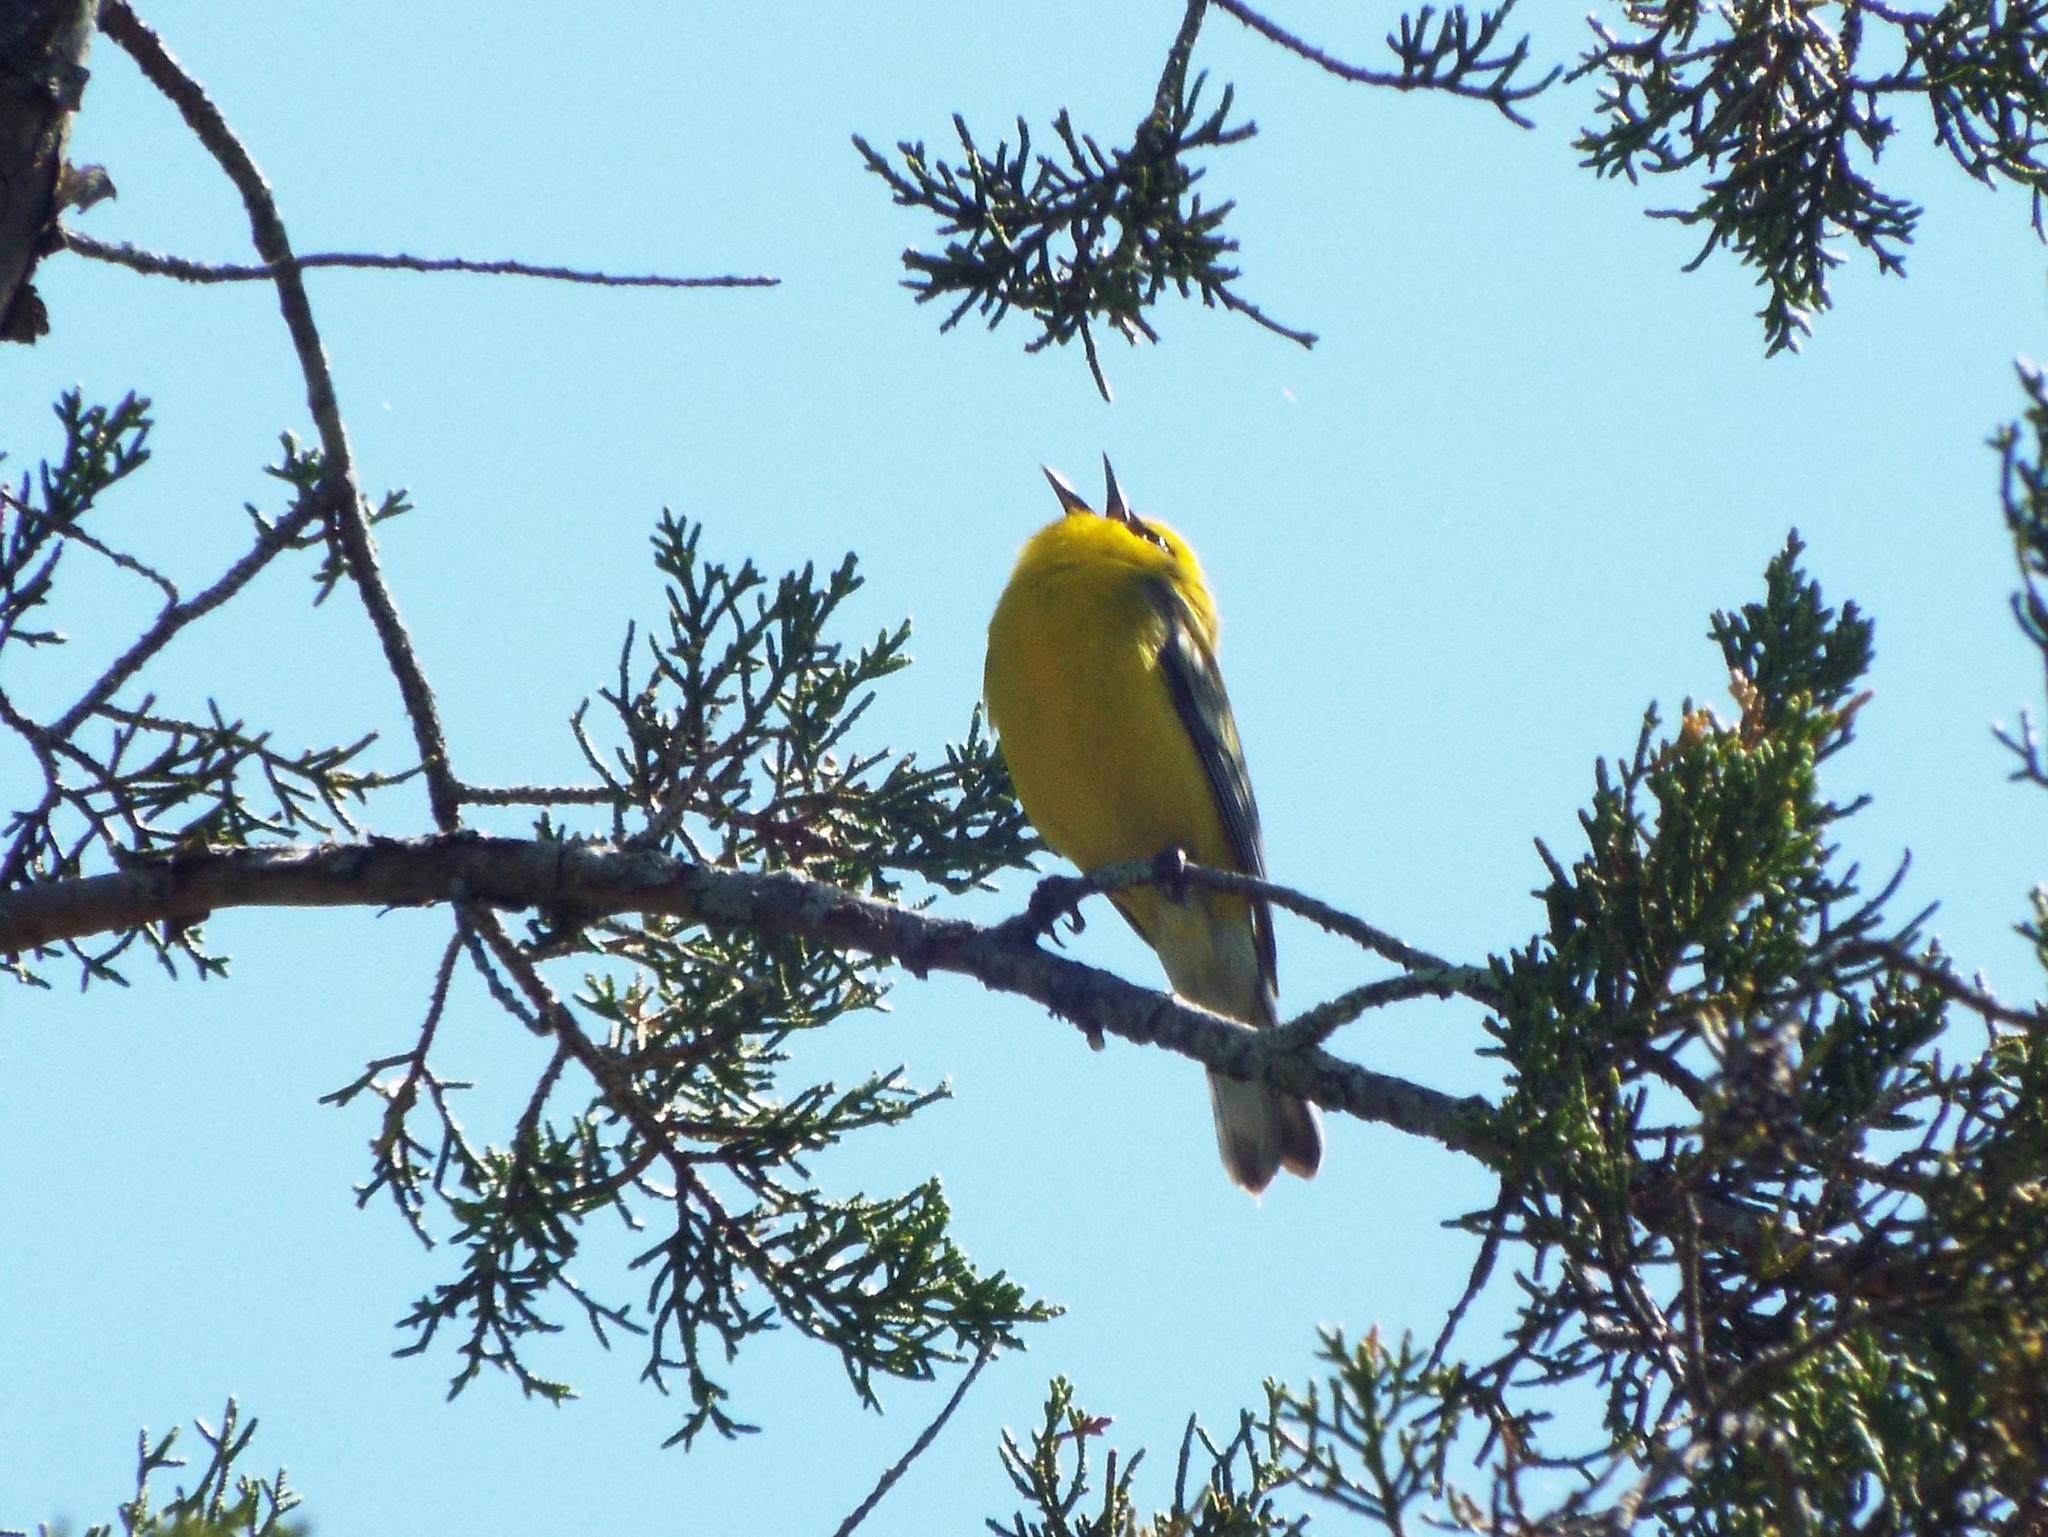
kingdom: Animalia
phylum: Chordata
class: Aves
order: Passeriformes
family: Parulidae
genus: Vermivora
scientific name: Vermivora cyanoptera
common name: Blue-winged warbler
